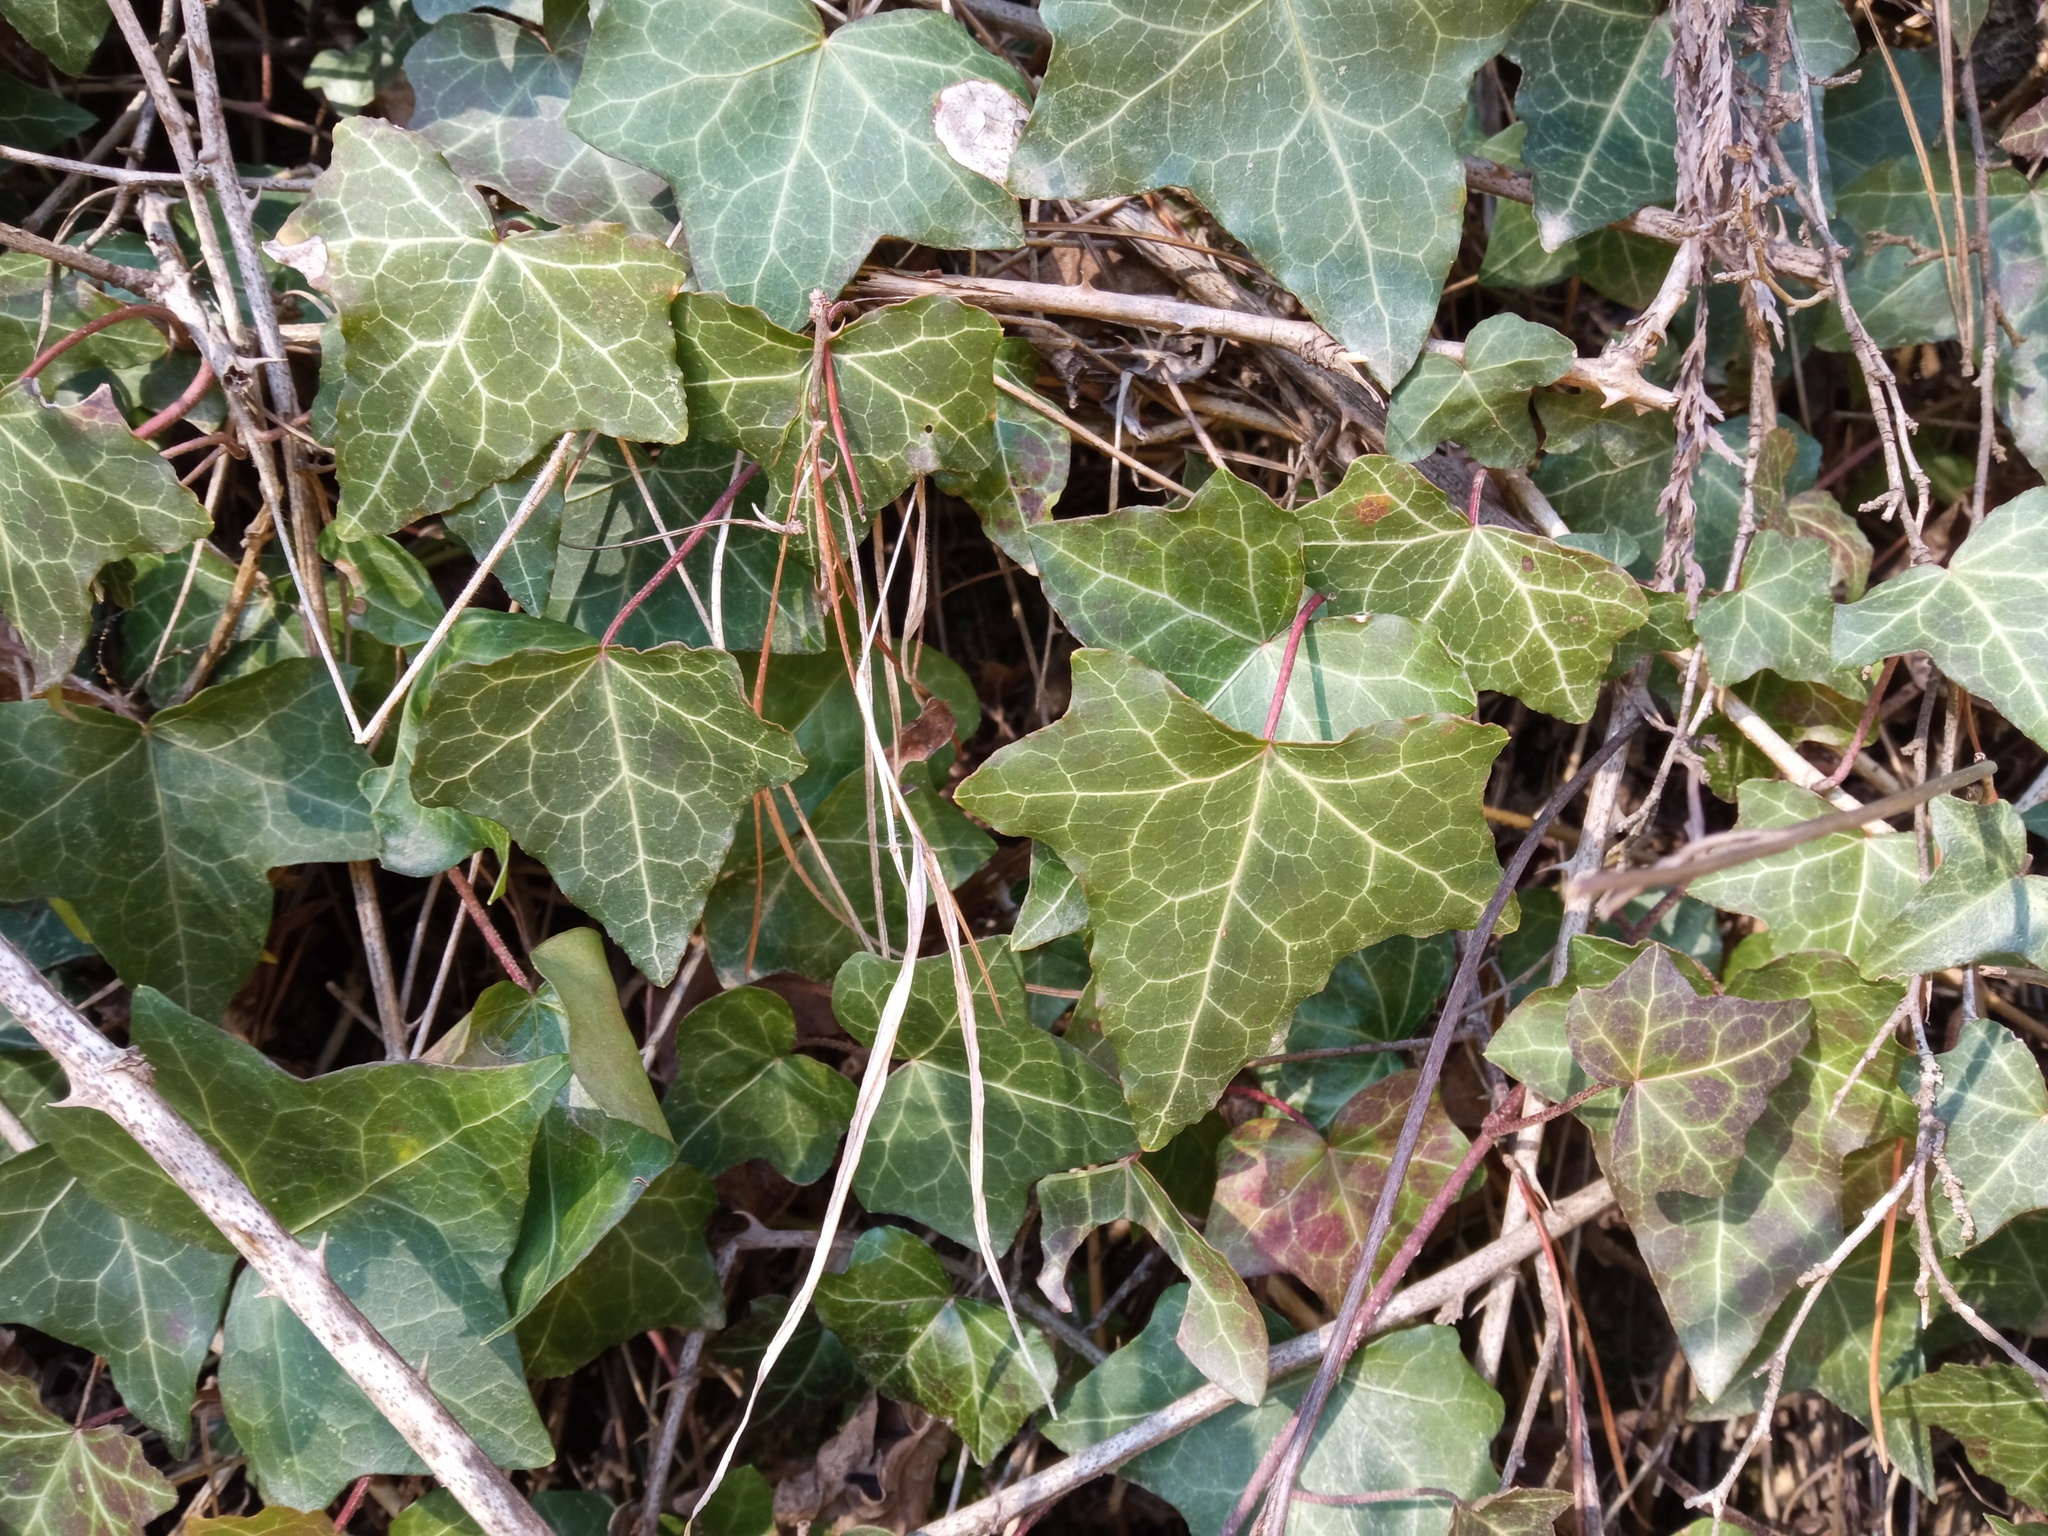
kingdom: Plantae
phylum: Tracheophyta
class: Magnoliopsida
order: Apiales
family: Araliaceae
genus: Hedera
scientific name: Hedera helix
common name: Ivy
